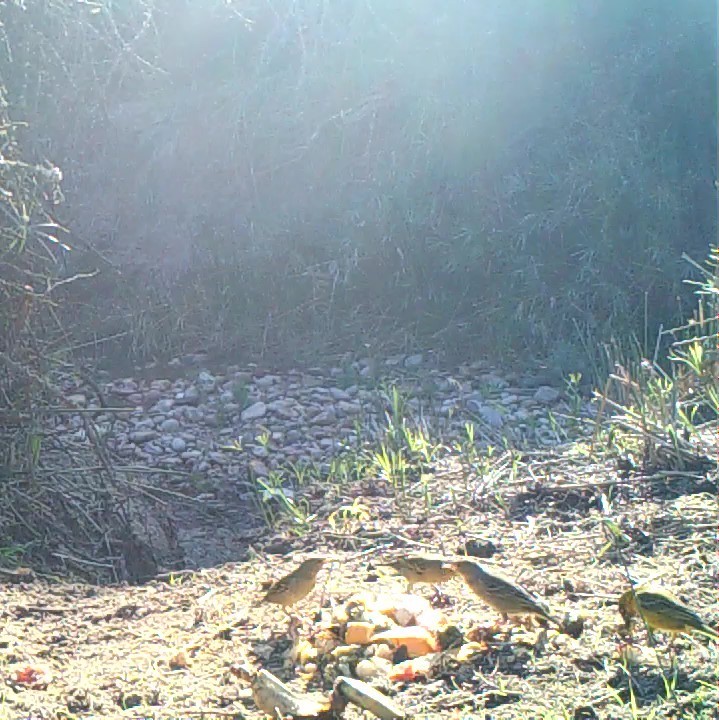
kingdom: Animalia
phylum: Chordata
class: Aves
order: Passeriformes
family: Ploceidae
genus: Ploceus
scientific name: Ploceus capensis
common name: Cape weaver
